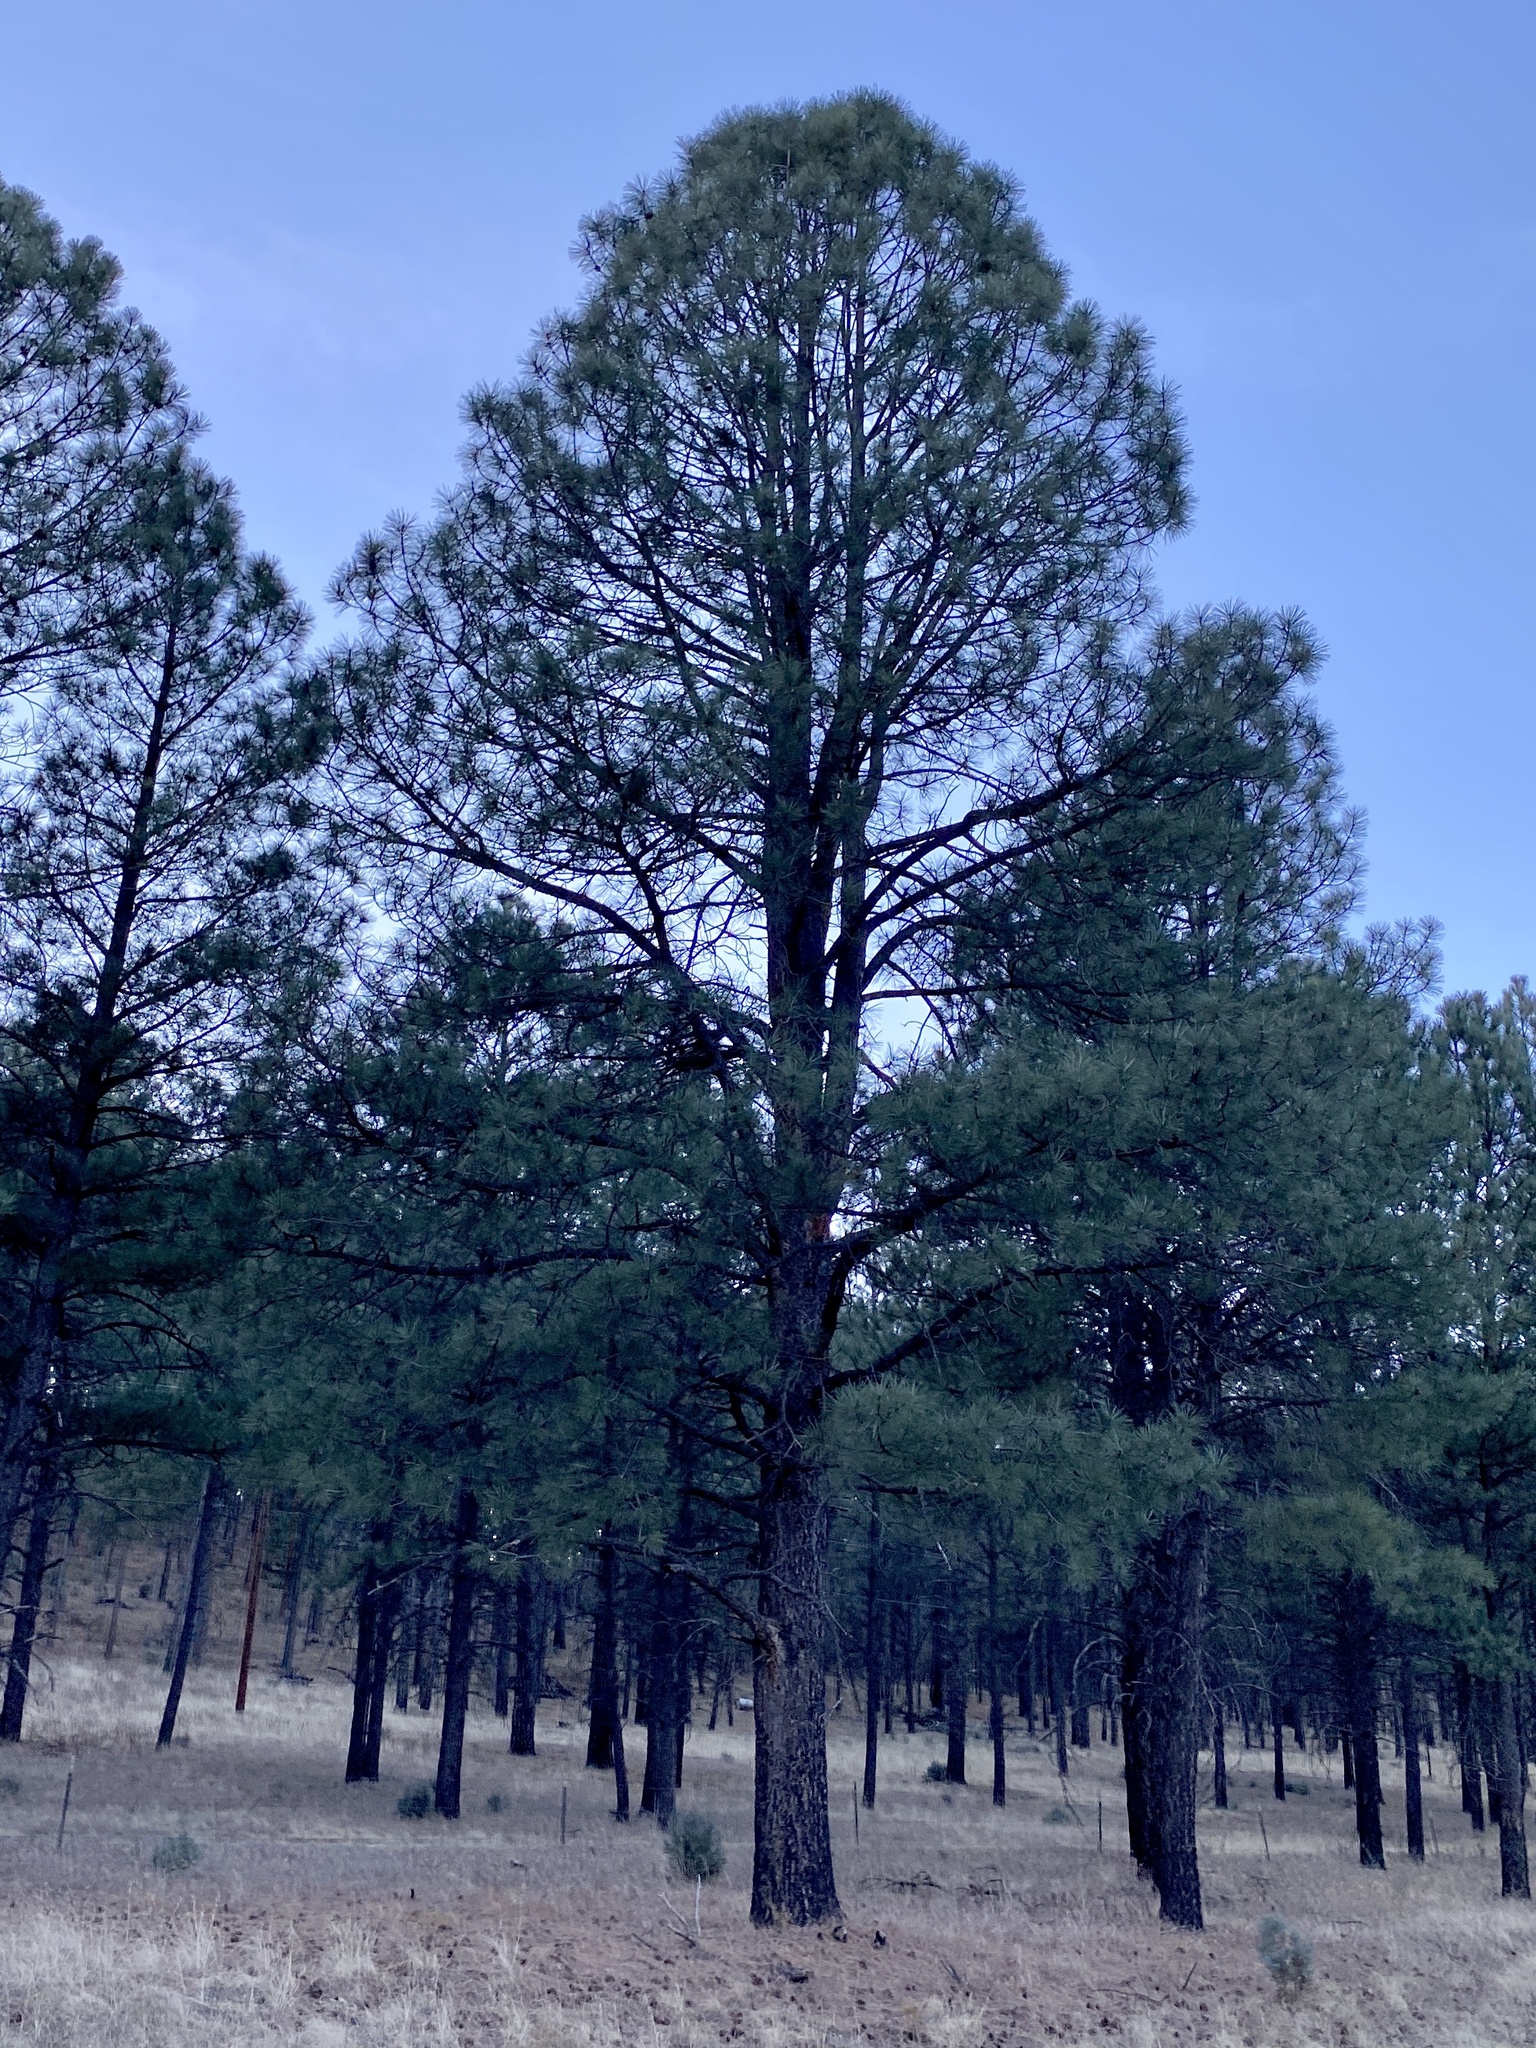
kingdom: Plantae
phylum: Tracheophyta
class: Pinopsida
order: Pinales
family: Pinaceae
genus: Pinus
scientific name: Pinus ponderosa
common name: Western yellow-pine
